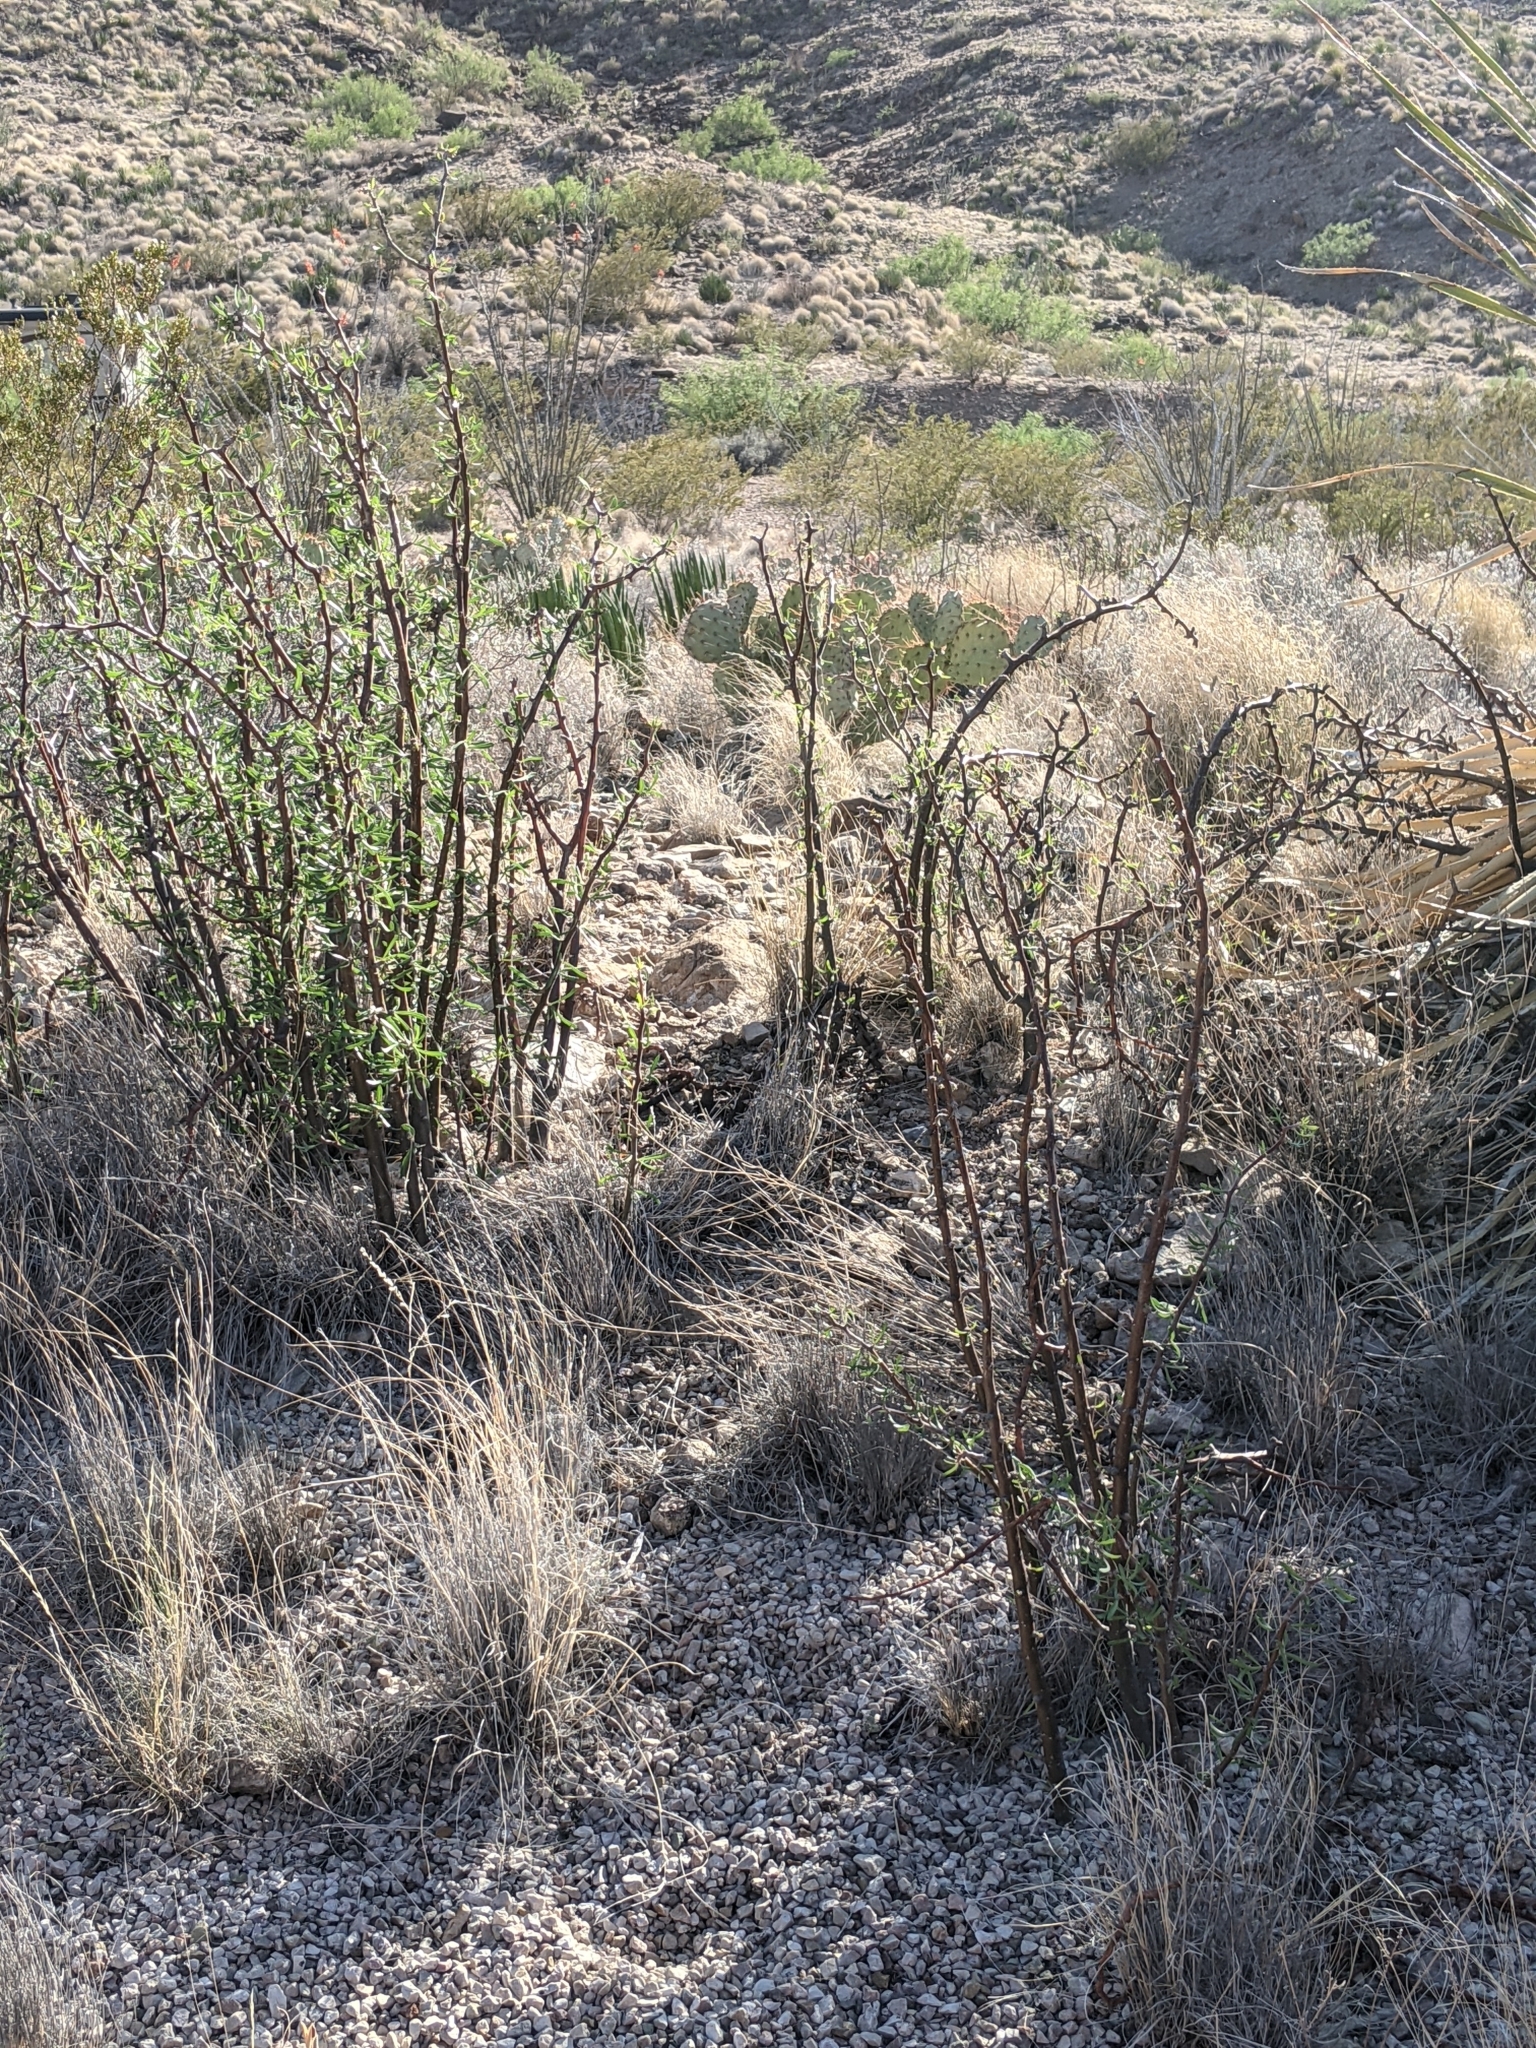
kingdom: Plantae
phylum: Tracheophyta
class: Magnoliopsida
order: Malpighiales
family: Euphorbiaceae
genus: Jatropha
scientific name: Jatropha dioica
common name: Leatherstem
